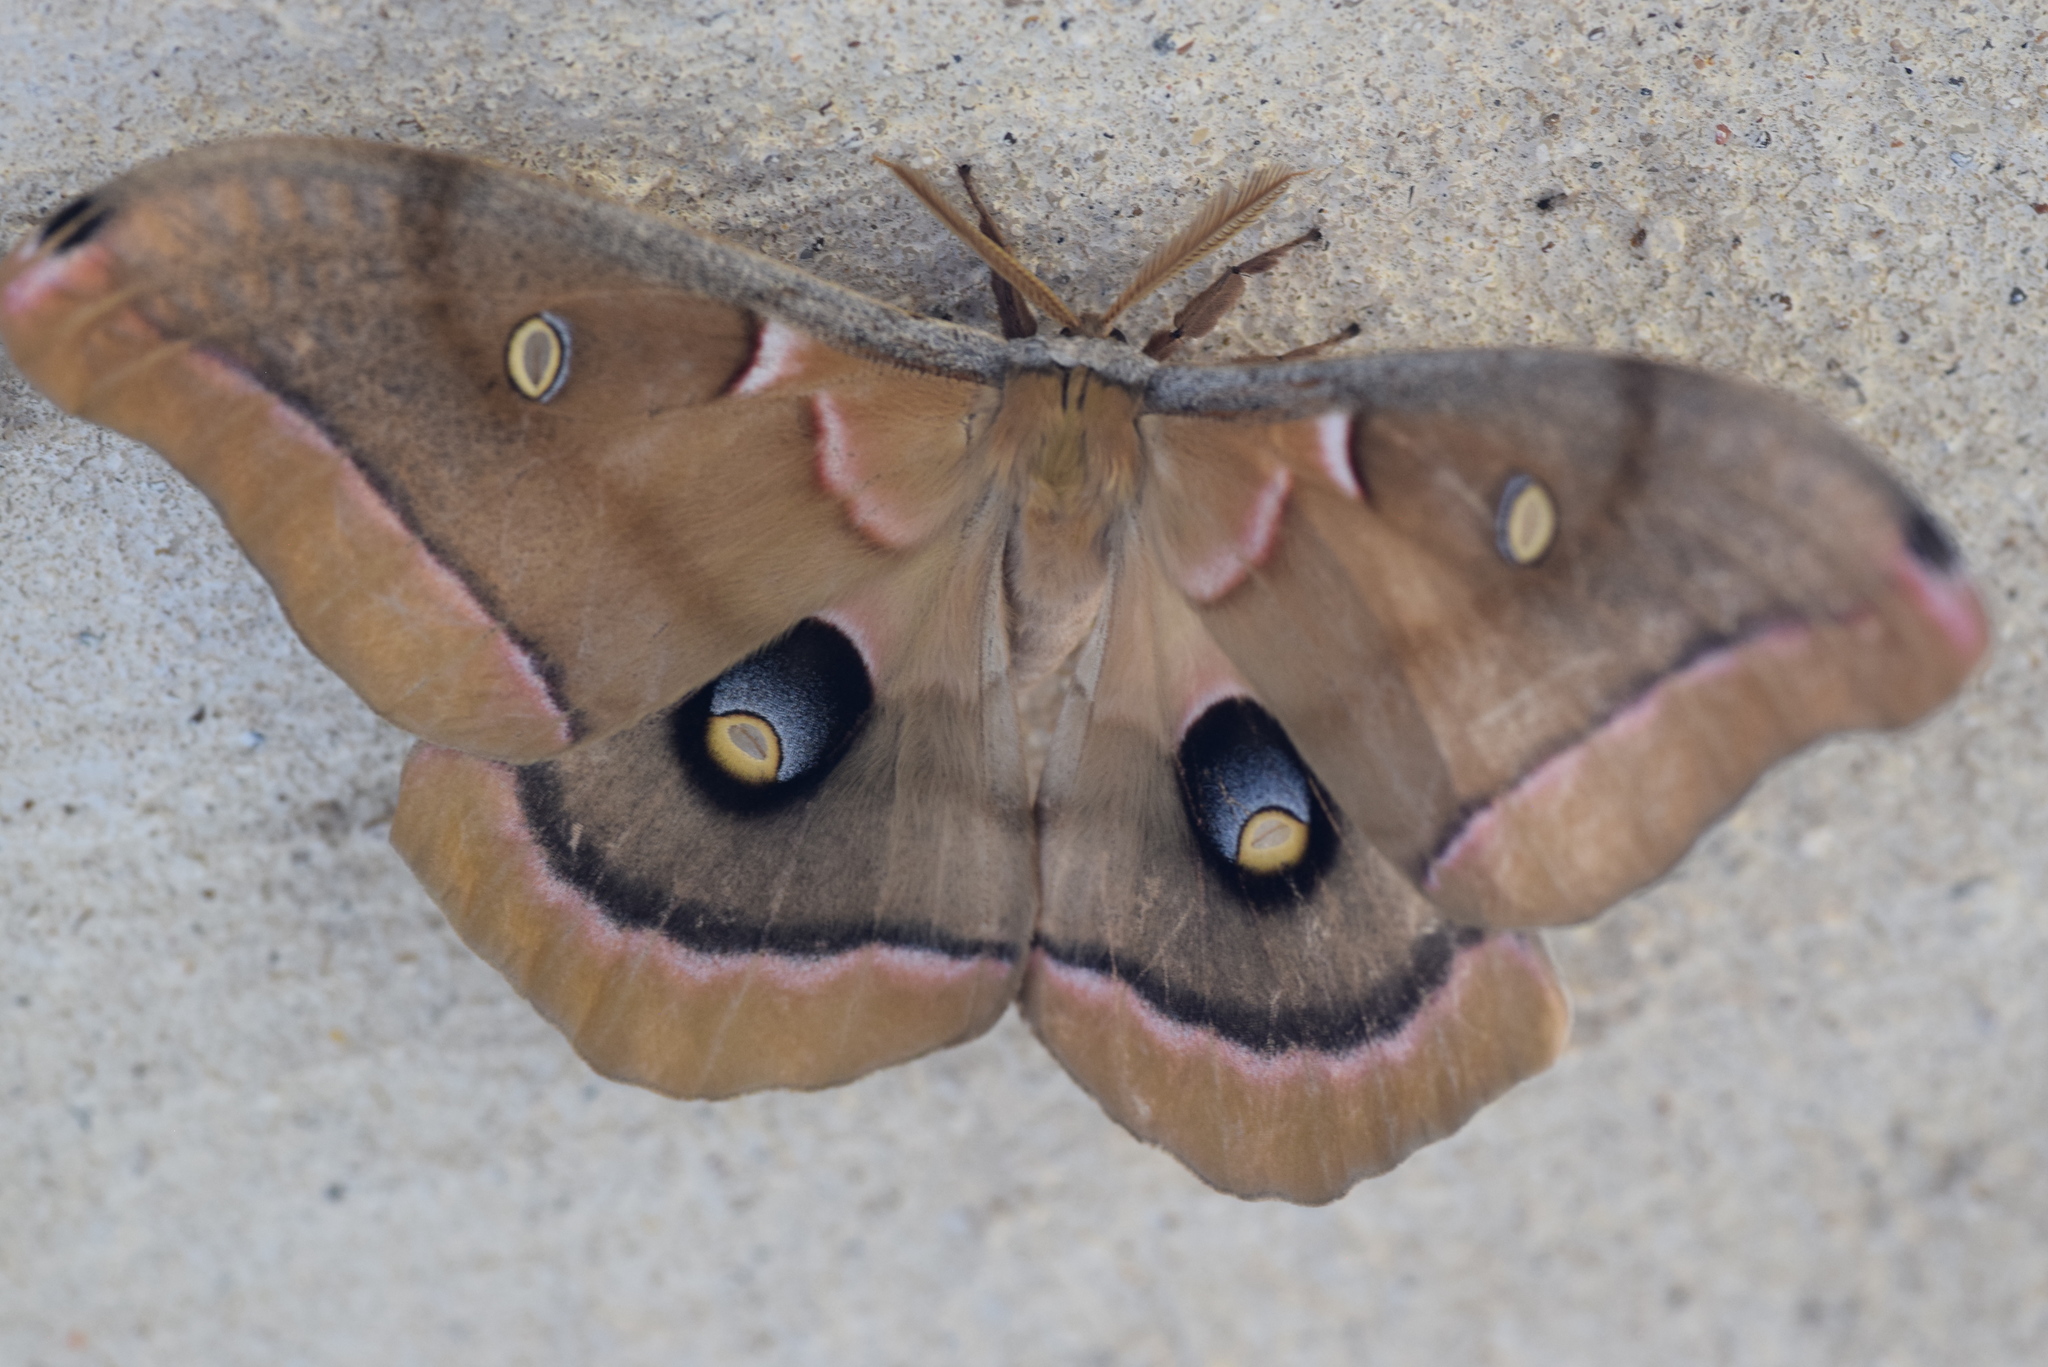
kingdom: Animalia
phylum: Arthropoda
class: Insecta
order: Lepidoptera
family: Saturniidae
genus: Antheraea
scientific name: Antheraea polyphemus
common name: Polyphemus moth
